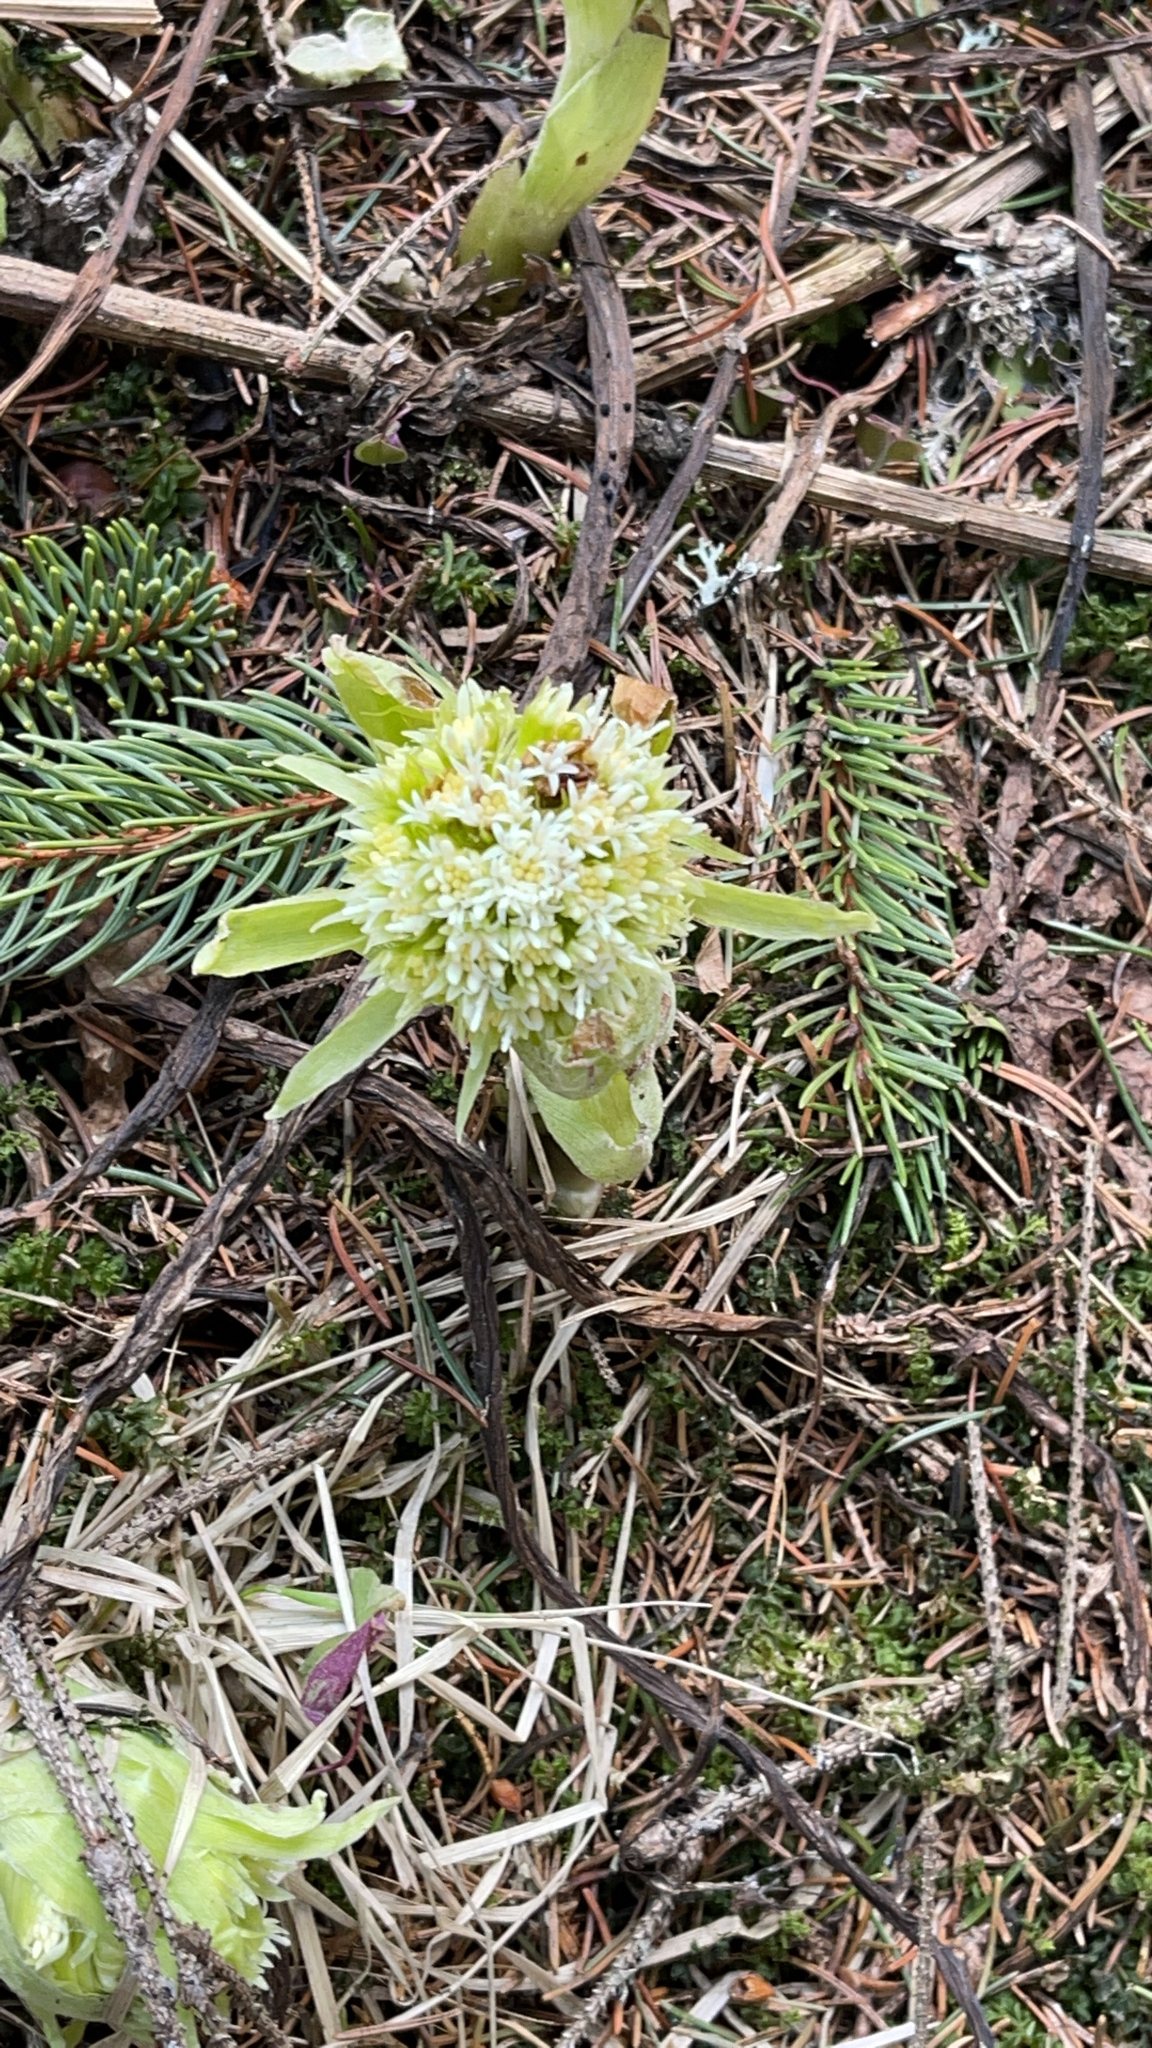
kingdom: Plantae
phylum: Tracheophyta
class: Magnoliopsida
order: Asterales
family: Asteraceae
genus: Petasites
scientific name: Petasites albus
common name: White butterbur
